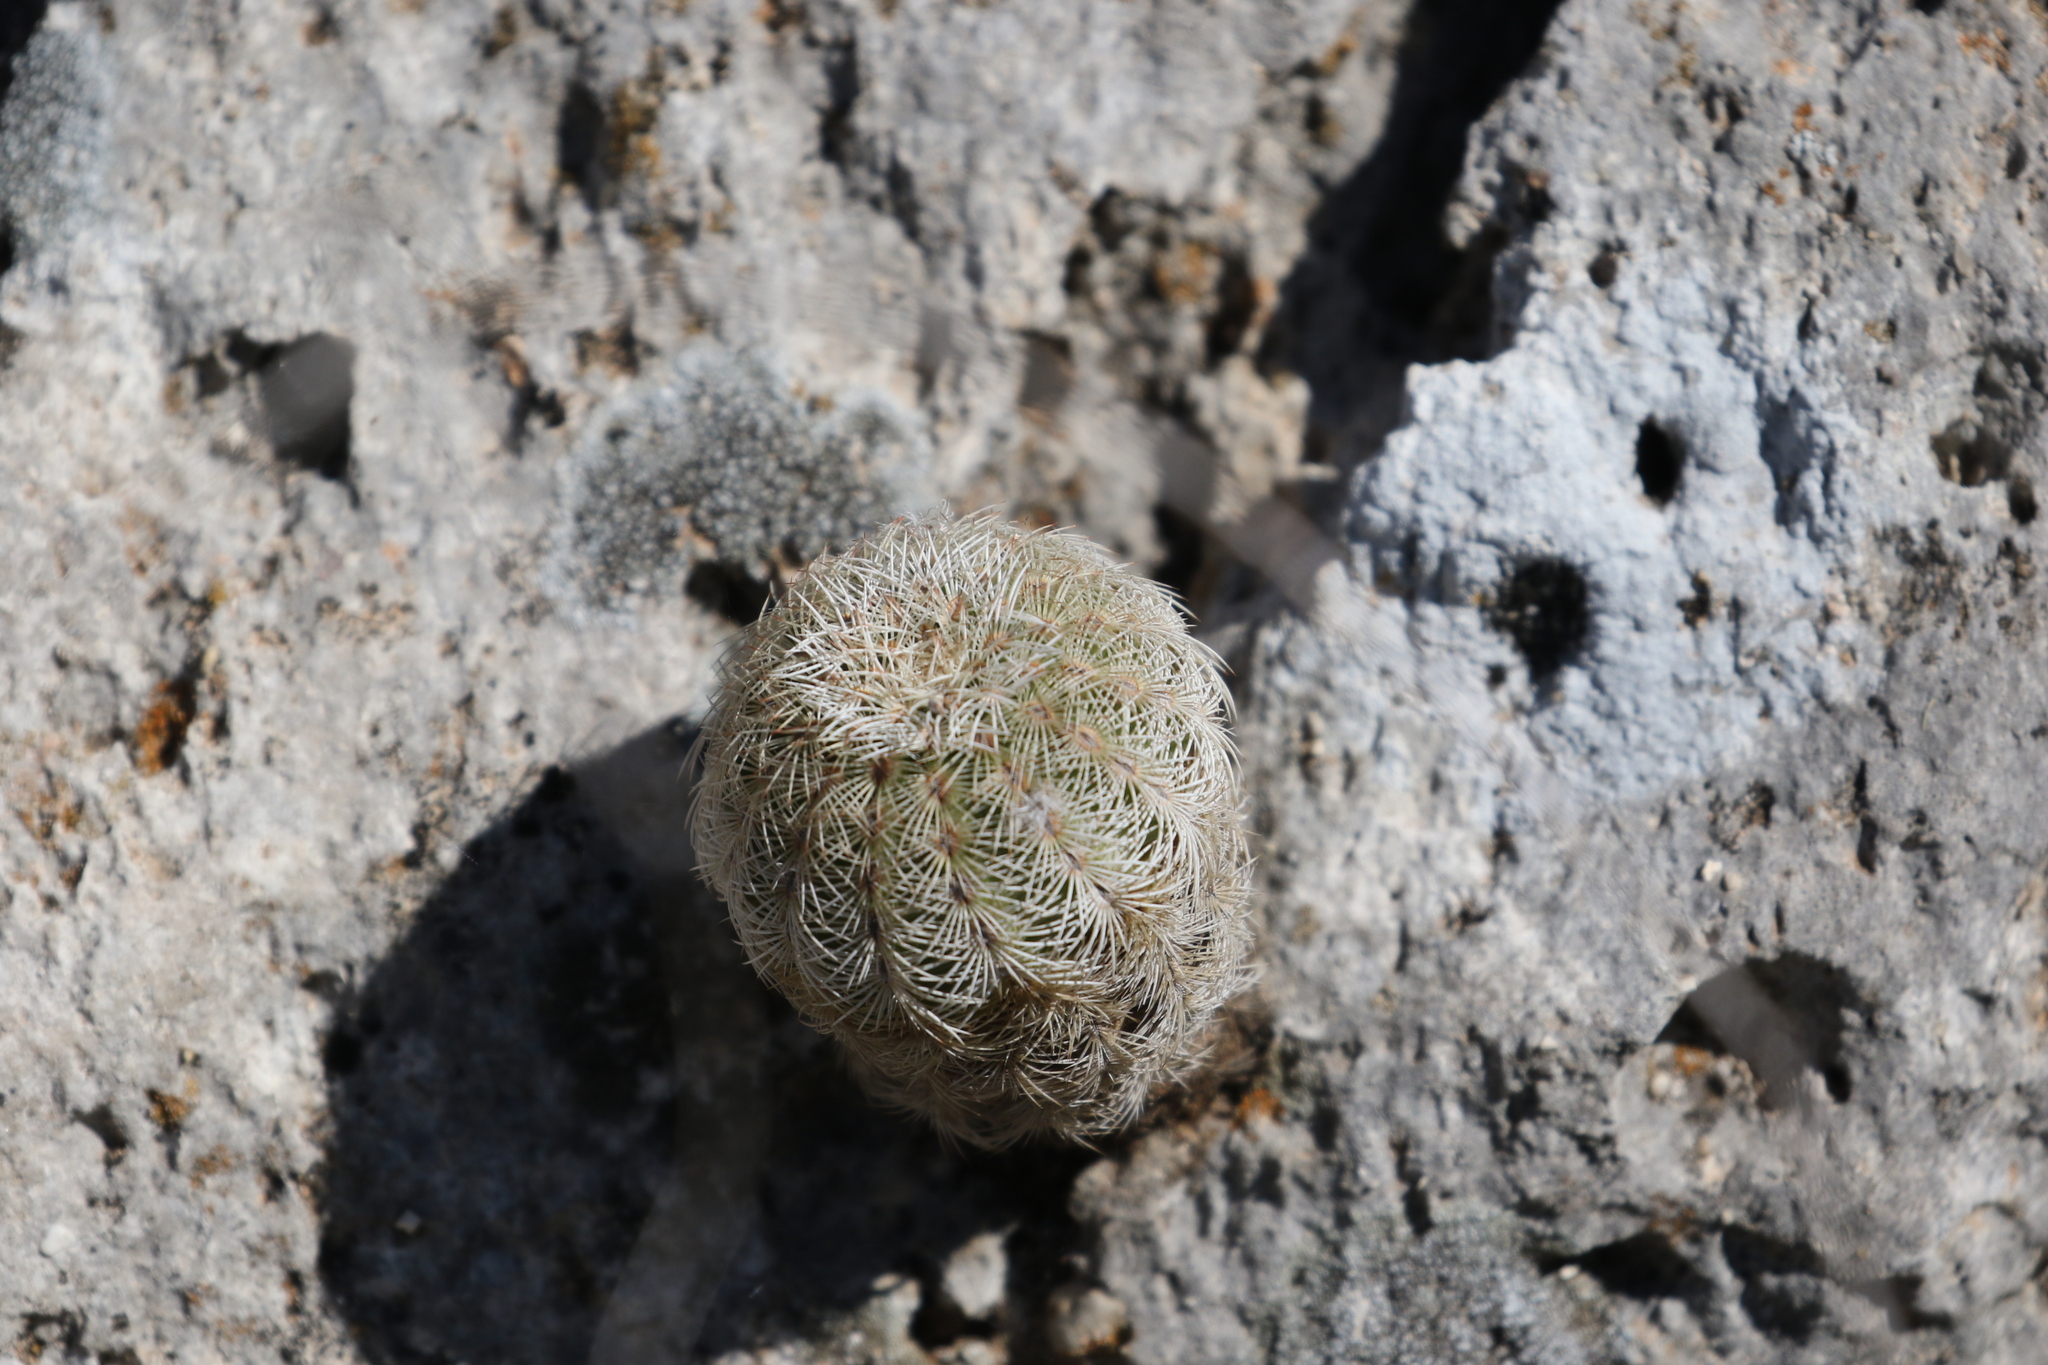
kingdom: Plantae
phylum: Tracheophyta
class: Magnoliopsida
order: Caryophyllales
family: Cactaceae
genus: Echinocereus
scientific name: Echinocereus reichenbachii
